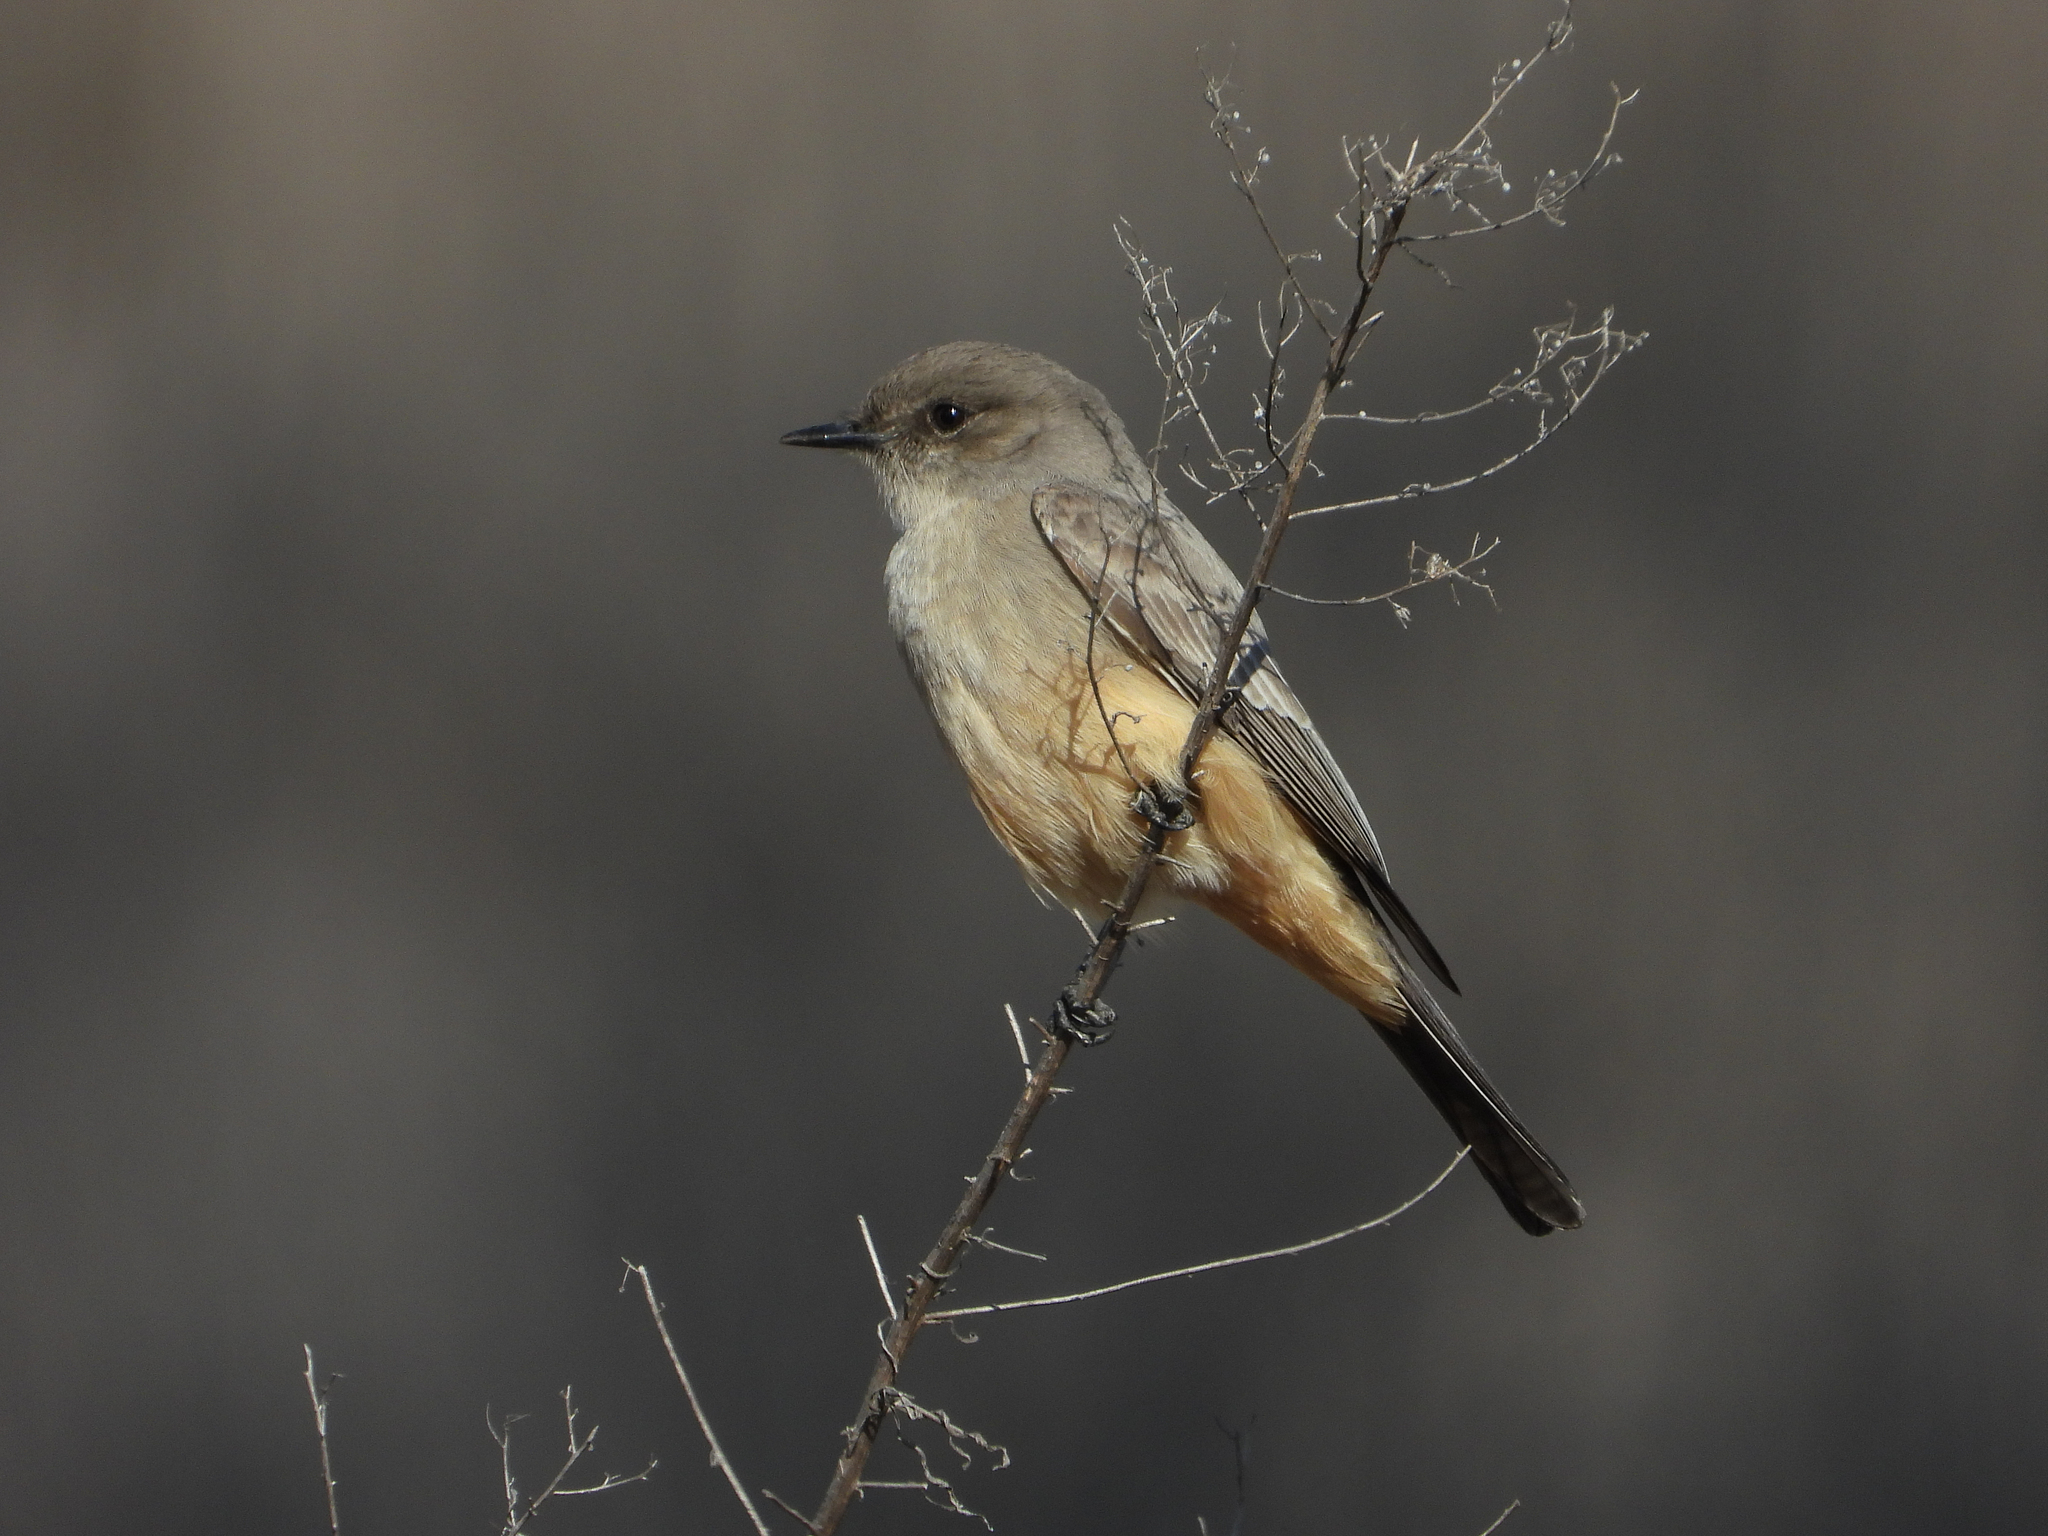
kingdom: Animalia
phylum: Chordata
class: Aves
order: Passeriformes
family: Tyrannidae
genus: Sayornis
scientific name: Sayornis saya
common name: Say's phoebe
